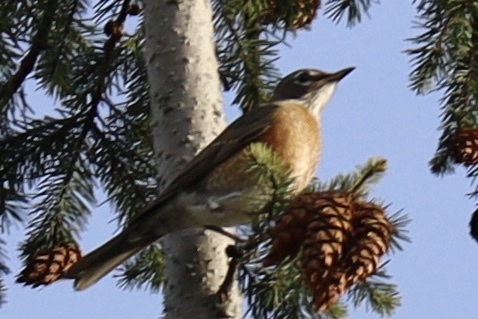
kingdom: Animalia
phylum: Chordata
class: Aves
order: Passeriformes
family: Turdidae
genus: Turdus
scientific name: Turdus migratorius
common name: American robin
